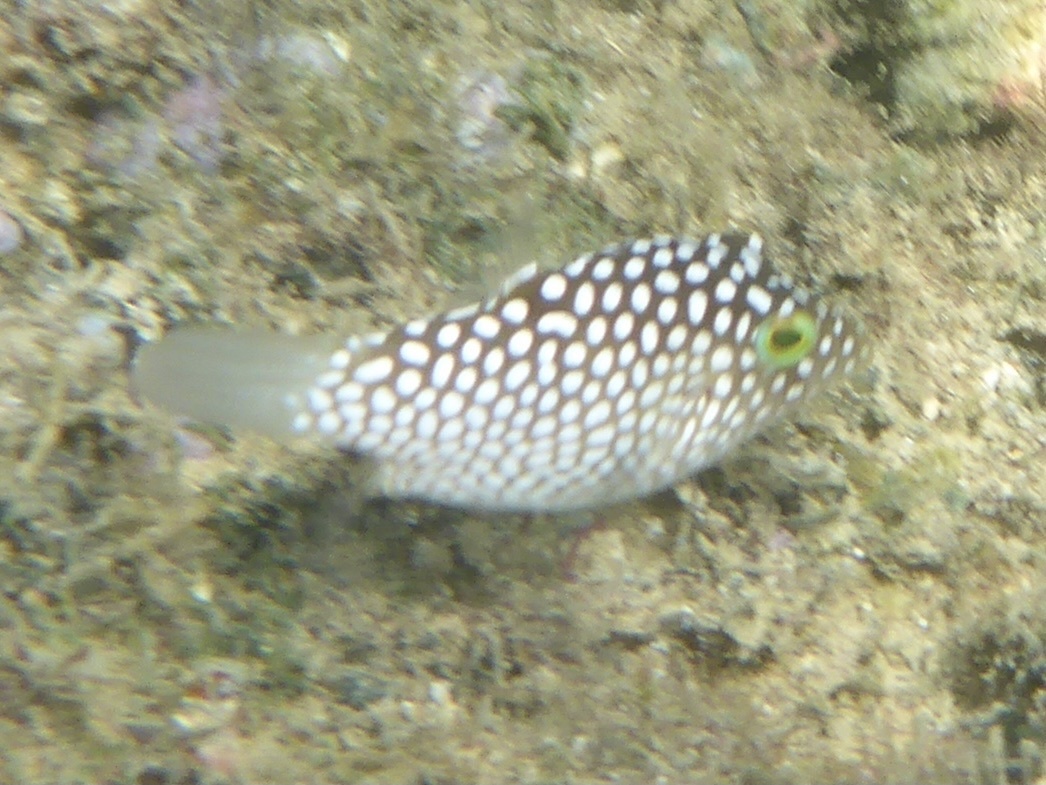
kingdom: Animalia
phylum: Chordata
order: Tetraodontiformes
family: Tetraodontidae
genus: Canthigaster
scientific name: Canthigaster jactator
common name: Hawaiian whitespotted toby
